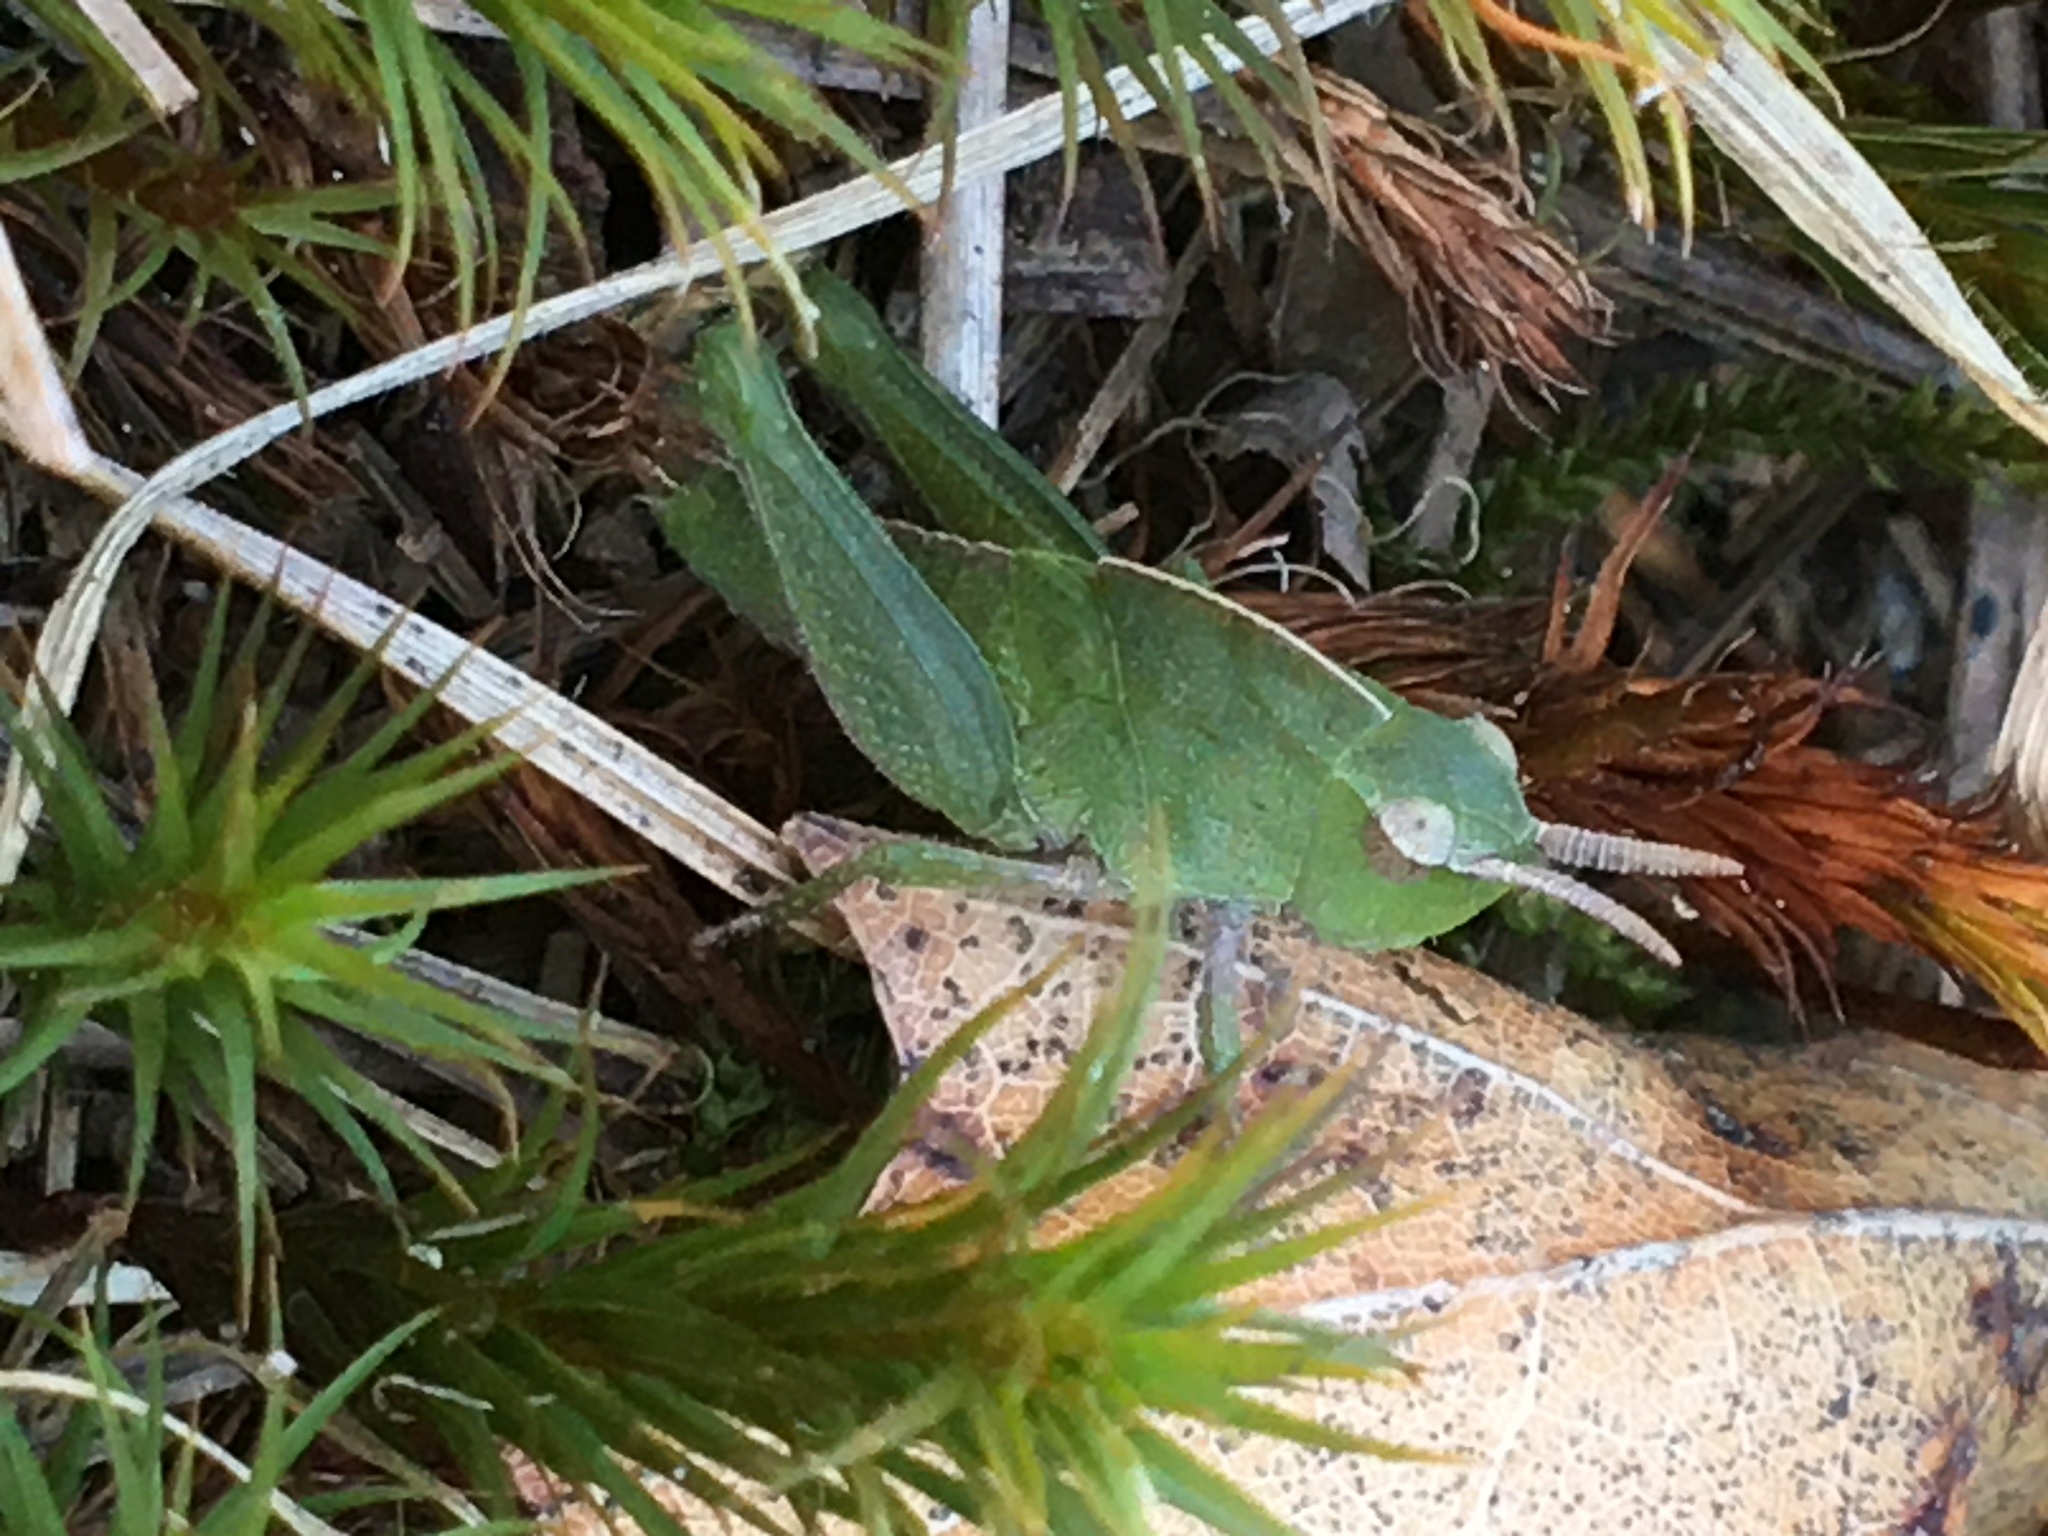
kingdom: Animalia
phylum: Arthropoda
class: Insecta
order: Orthoptera
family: Acrididae
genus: Chortophaga
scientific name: Chortophaga viridifasciata
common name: Green-striped grasshopper
